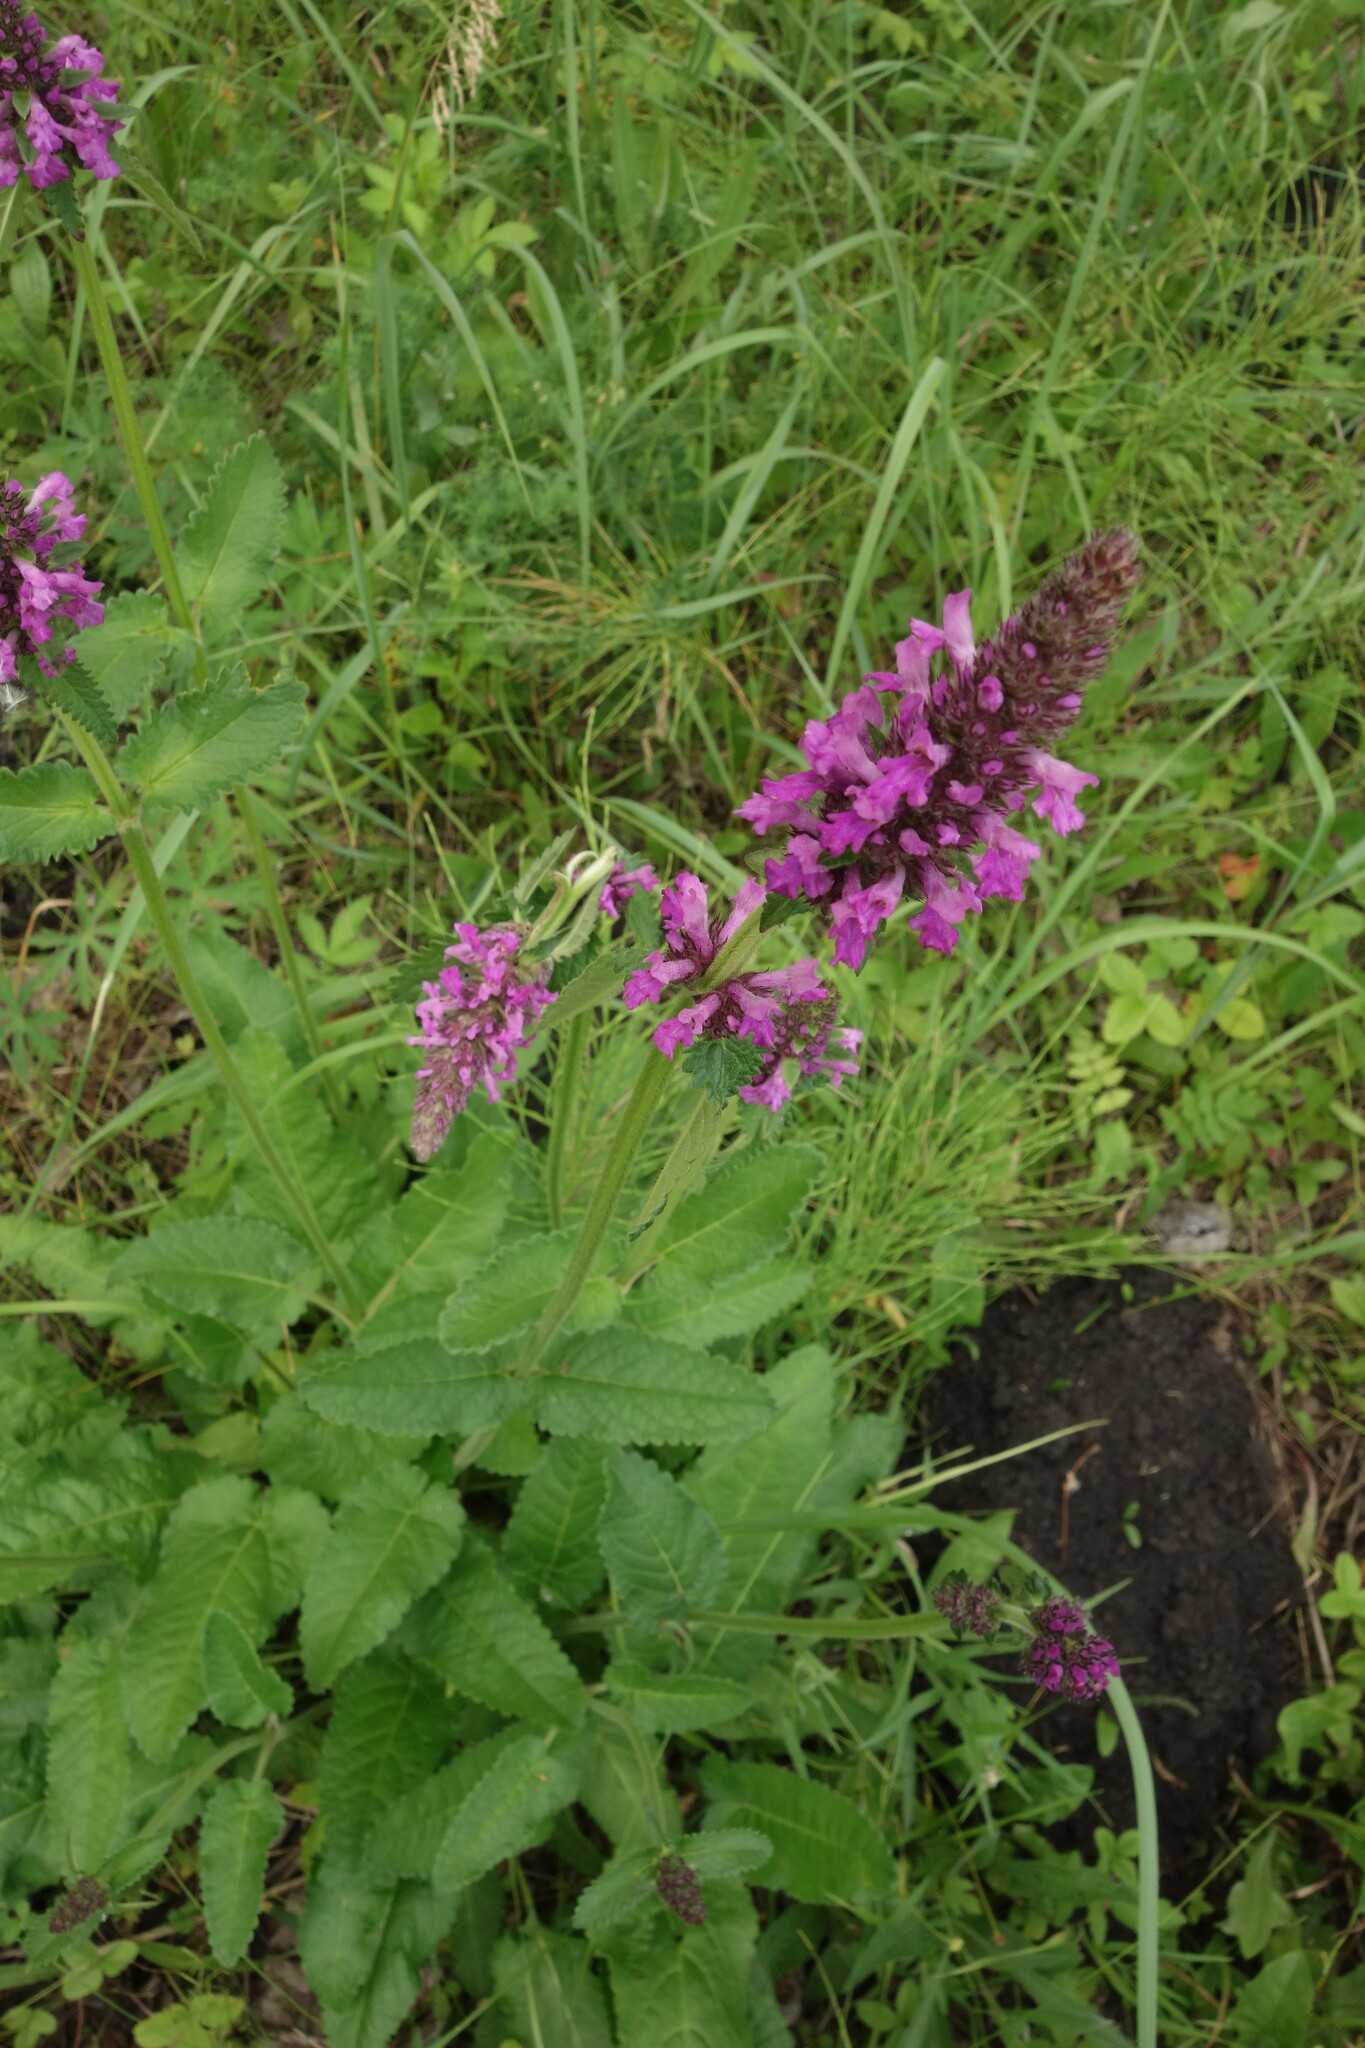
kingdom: Plantae
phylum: Tracheophyta
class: Magnoliopsida
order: Lamiales
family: Lamiaceae
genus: Betonica
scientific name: Betonica officinalis
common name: Bishop's-wort
